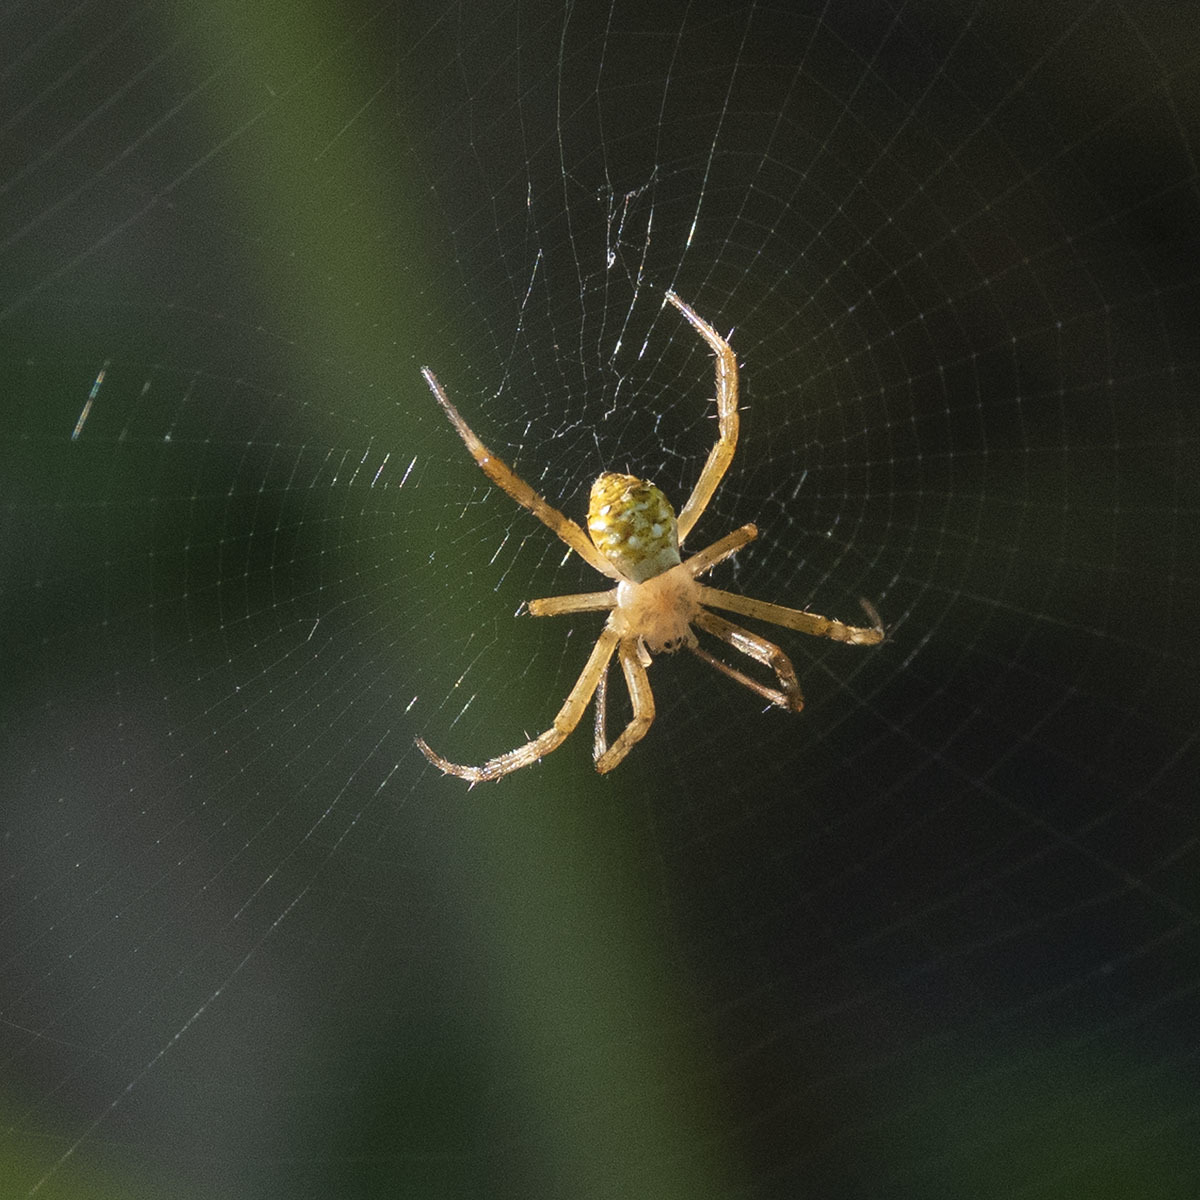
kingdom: Animalia
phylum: Arthropoda
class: Arachnida
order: Araneae
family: Araneidae
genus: Argiope
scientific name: Argiope aemula
